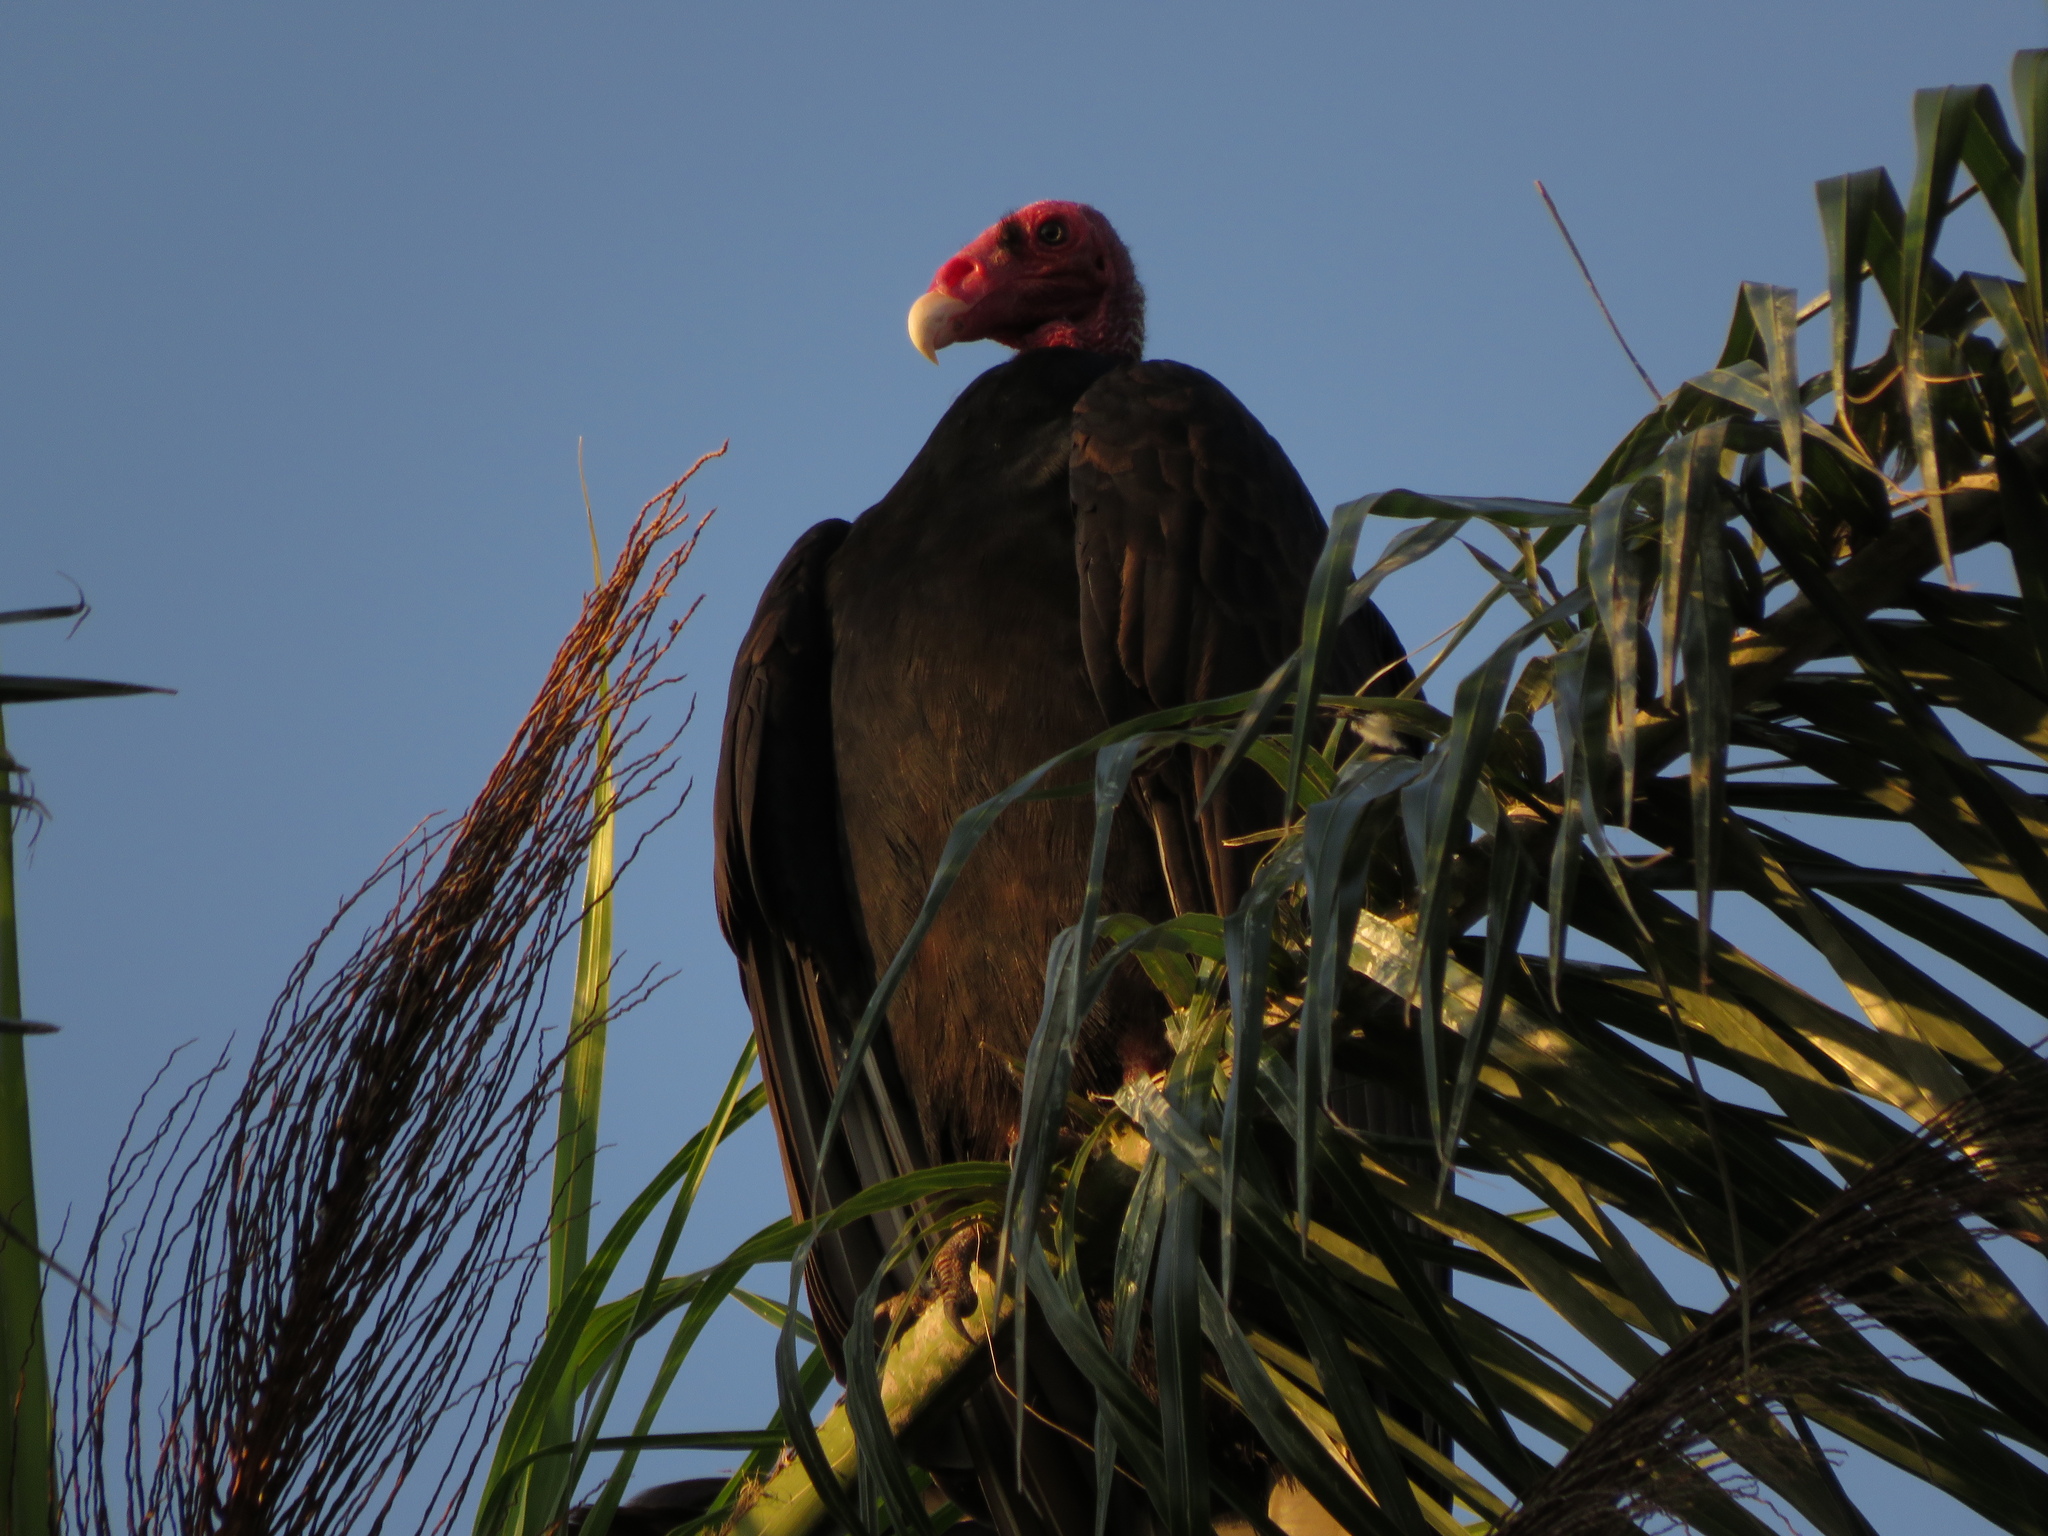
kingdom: Animalia
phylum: Chordata
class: Aves
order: Accipitriformes
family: Cathartidae
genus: Cathartes
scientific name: Cathartes aura
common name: Turkey vulture
